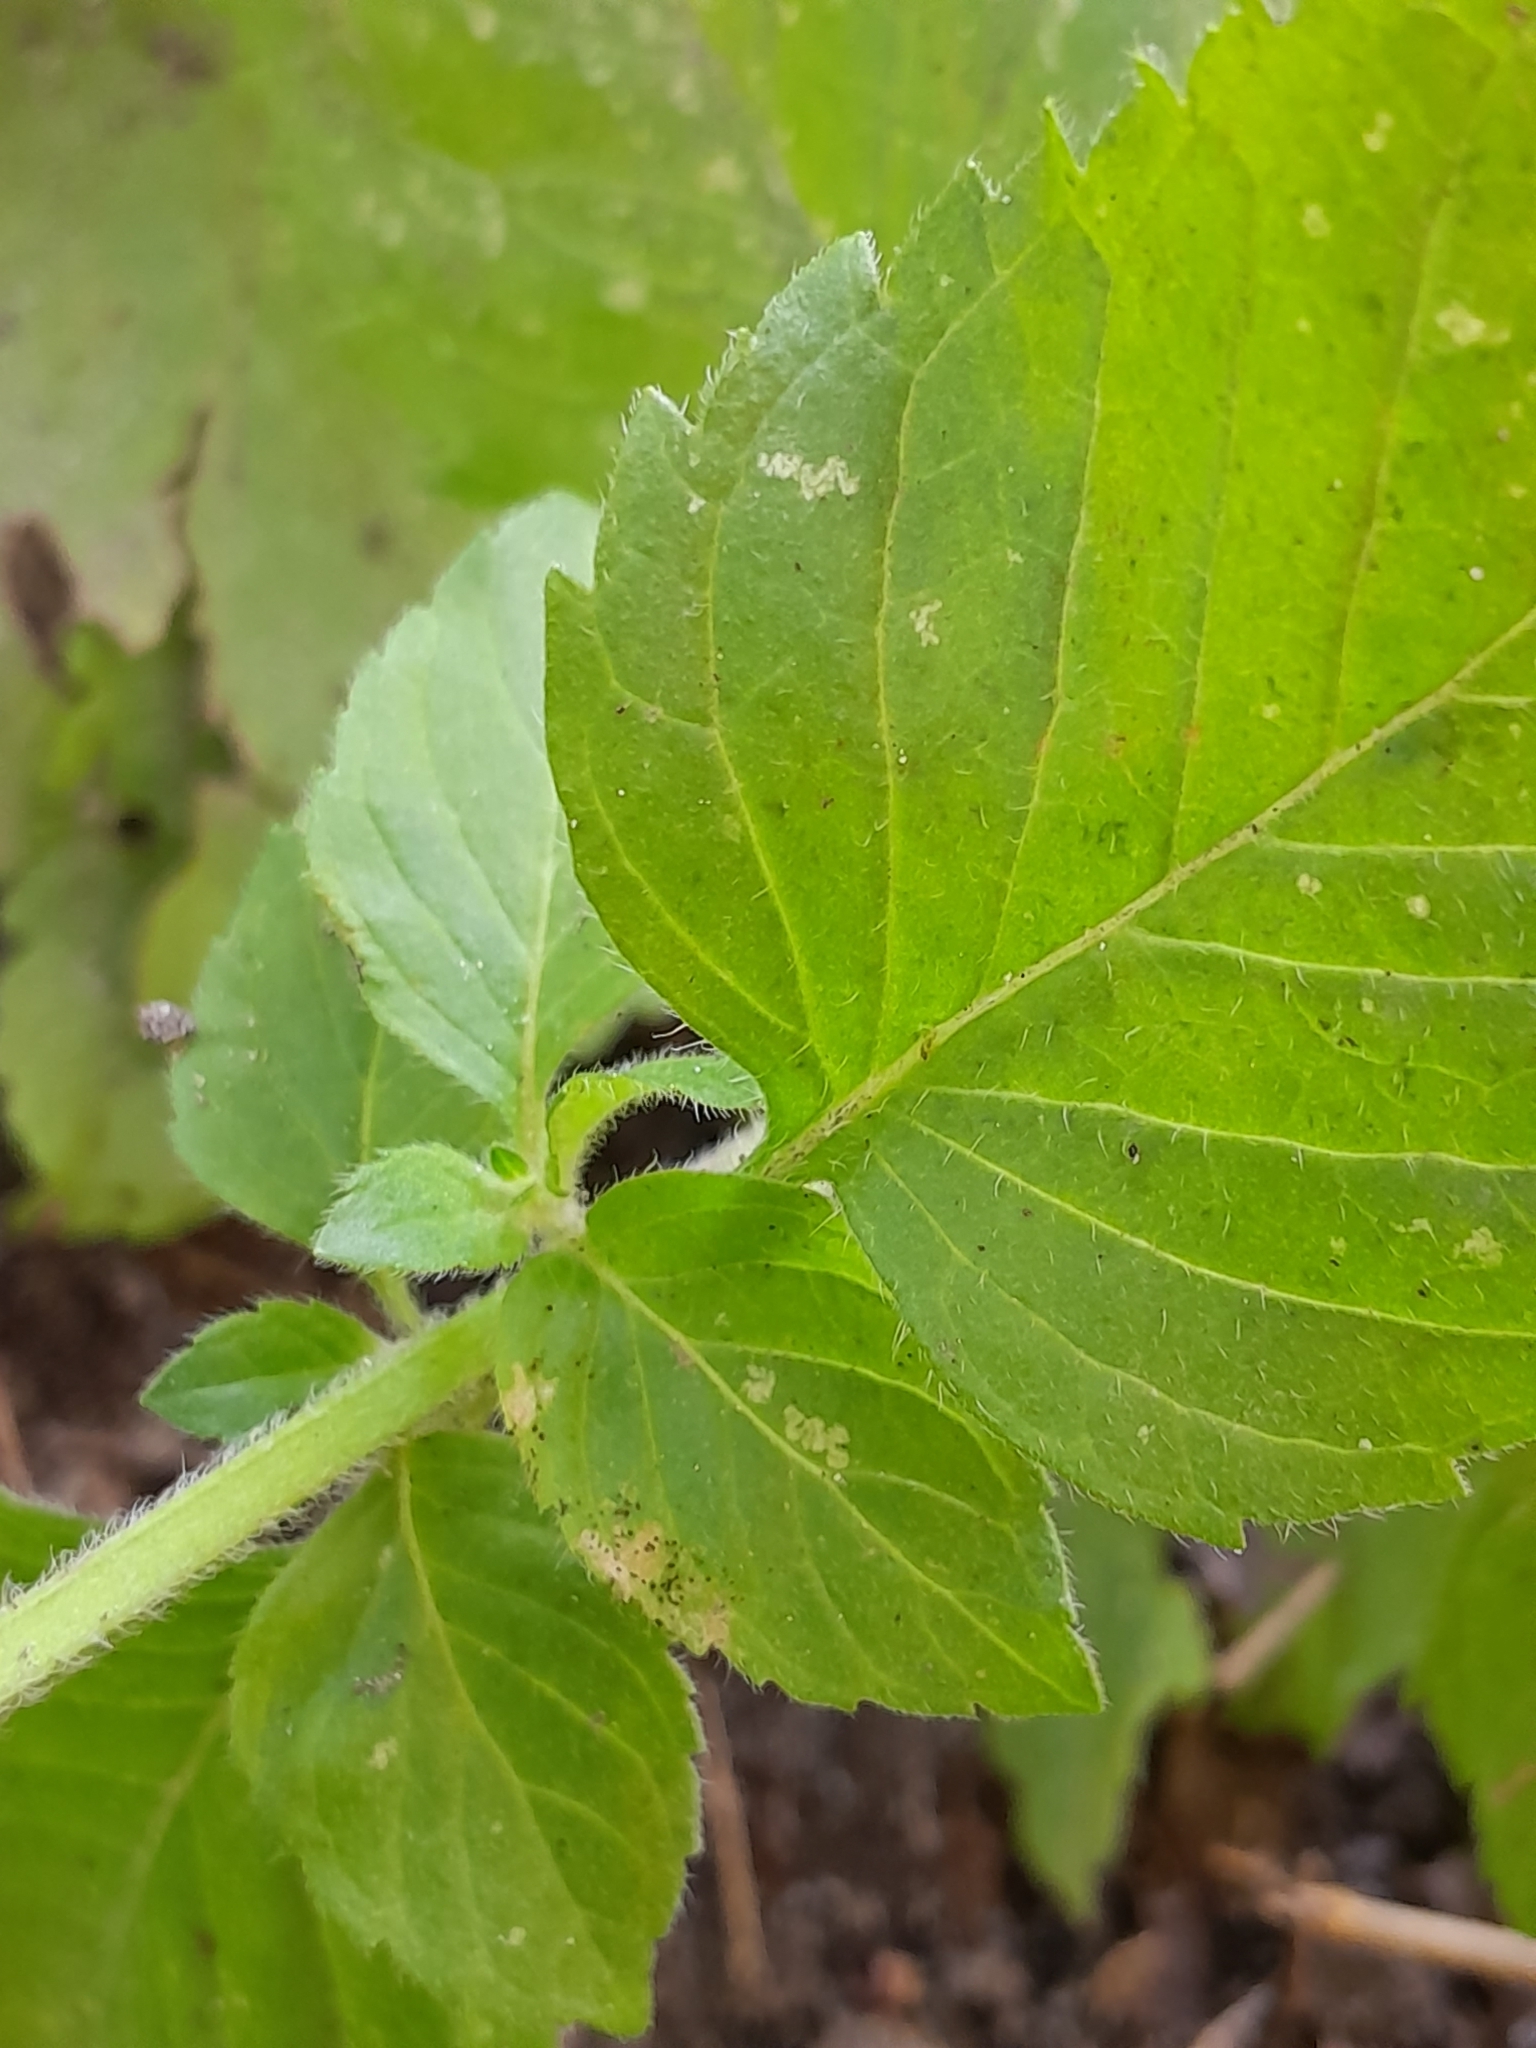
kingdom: Plantae
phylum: Tracheophyta
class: Magnoliopsida
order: Lamiales
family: Lamiaceae
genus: Mentha
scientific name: Mentha aquatica
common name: Water mint
